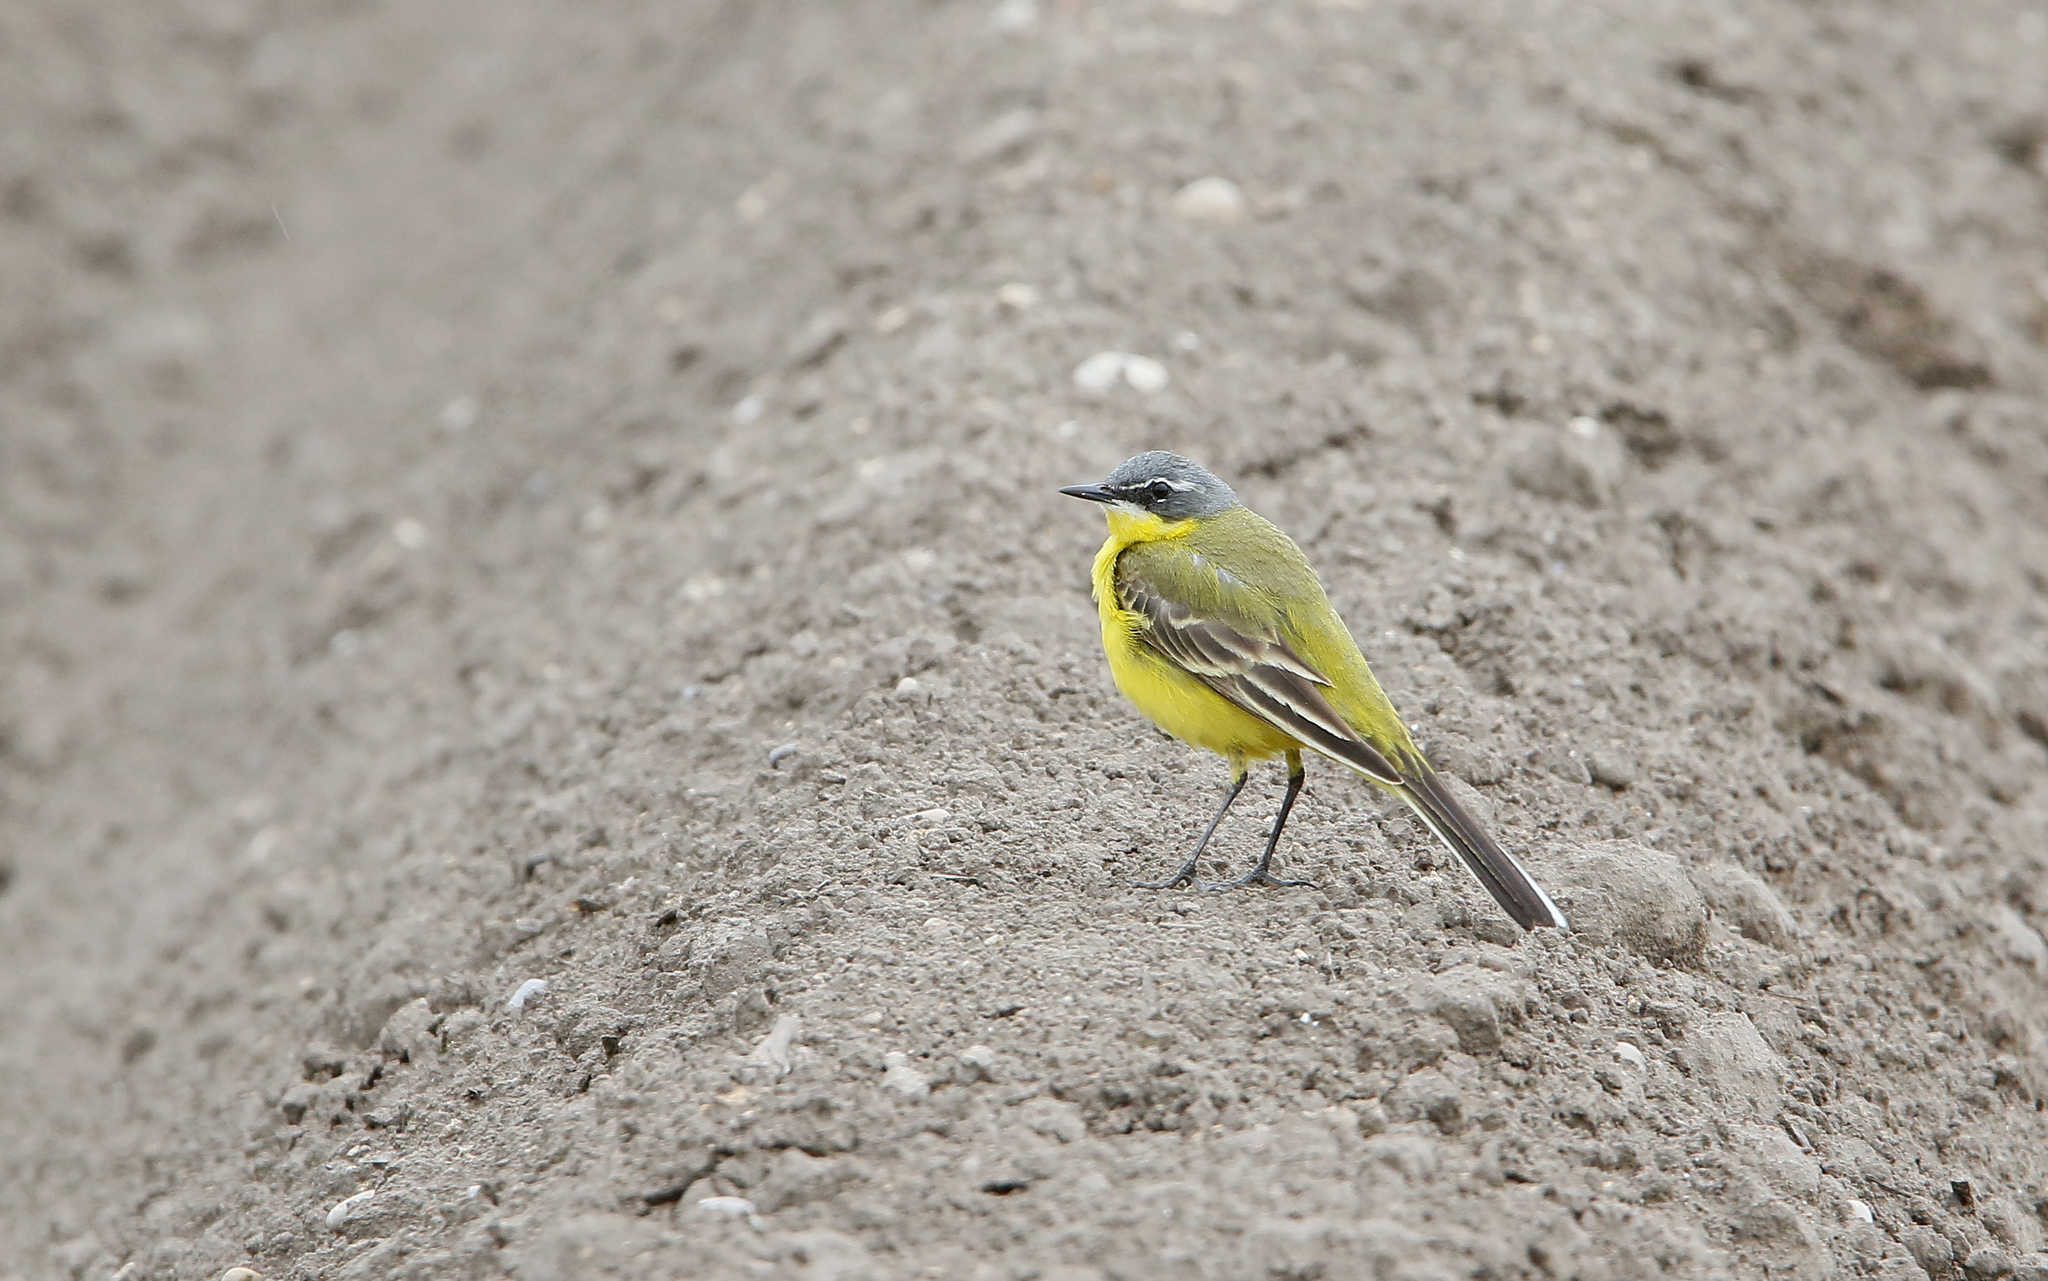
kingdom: Animalia
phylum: Chordata
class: Aves
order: Passeriformes
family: Motacillidae
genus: Motacilla
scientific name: Motacilla flava
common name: Western yellow wagtail
